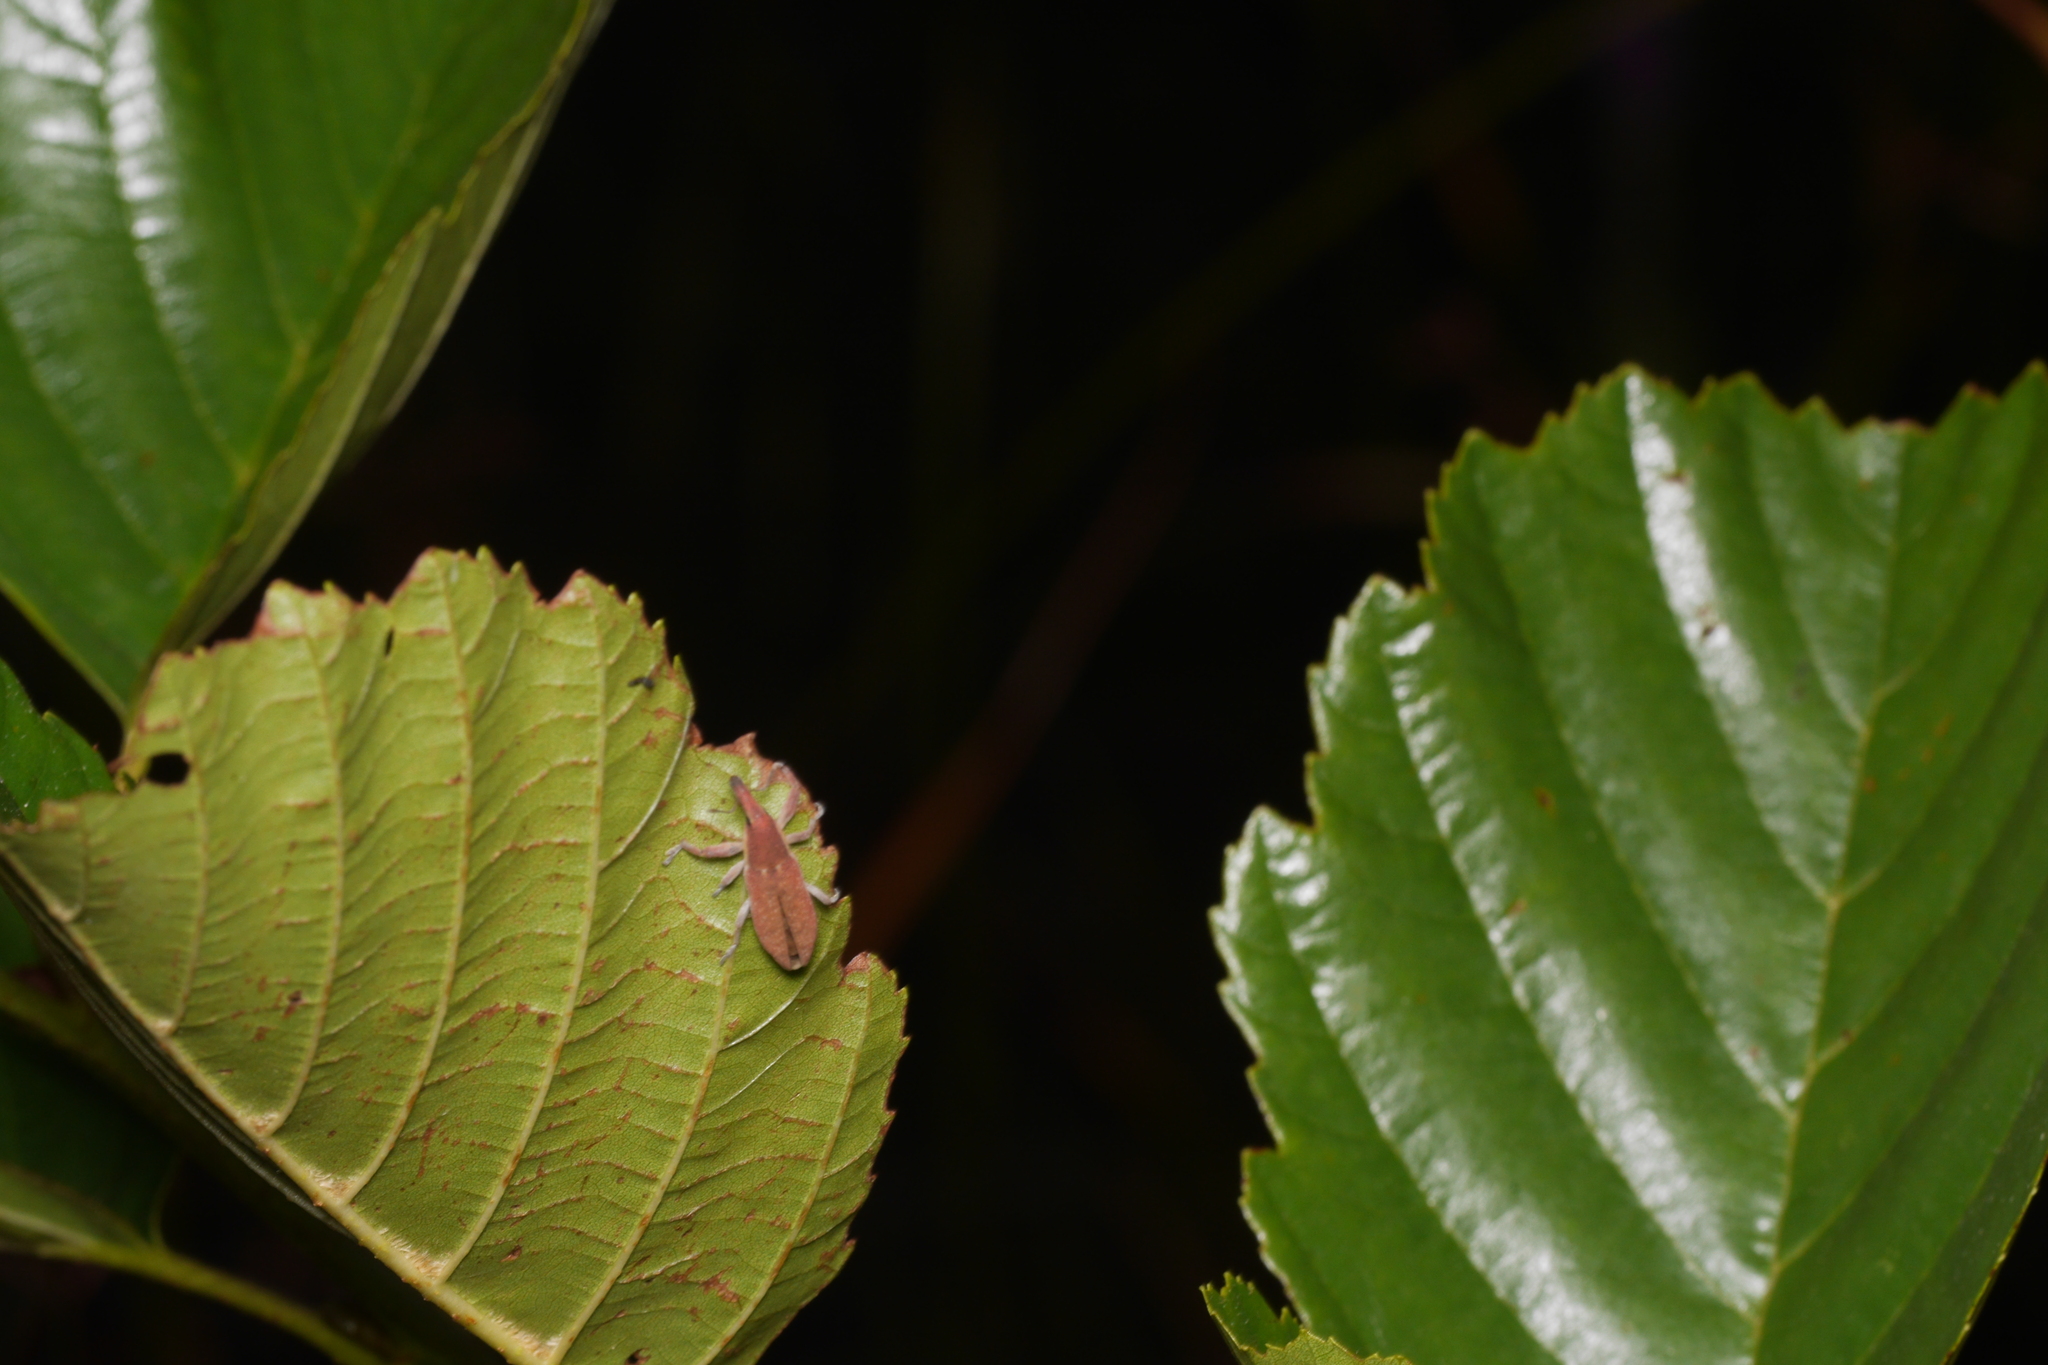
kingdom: Animalia
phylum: Arthropoda
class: Insecta
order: Coleoptera
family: Curculionidae
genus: Lixus
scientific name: Lixus vilis
